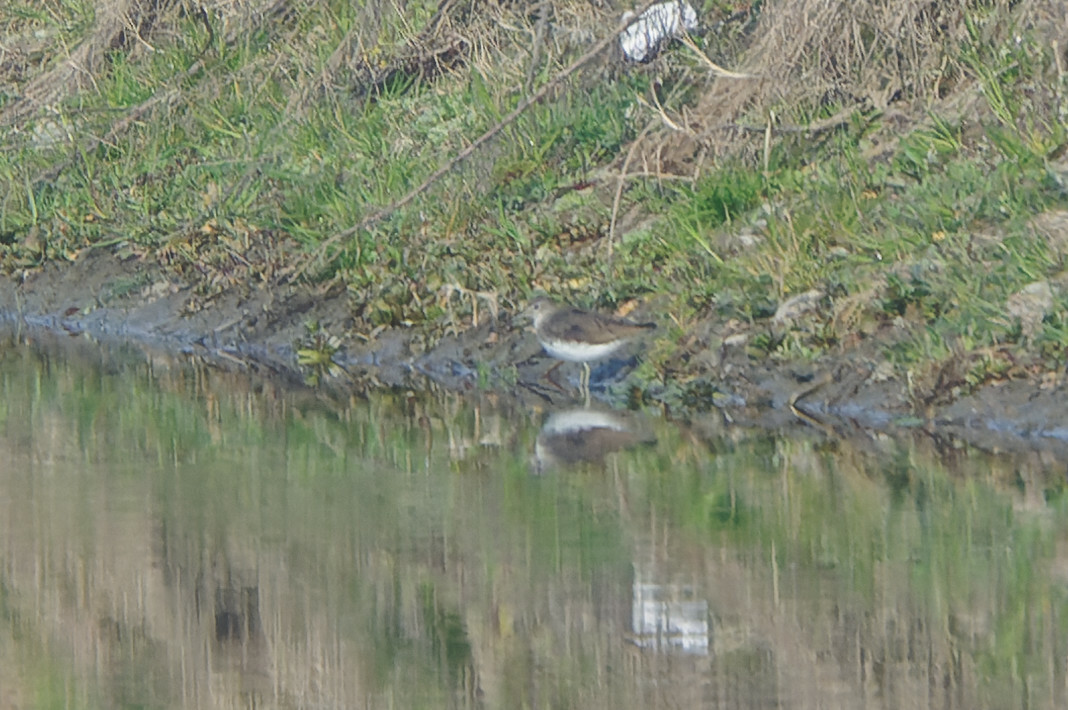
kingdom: Animalia
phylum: Chordata
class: Aves
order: Charadriiformes
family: Scolopacidae
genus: Tringa
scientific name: Tringa ochropus
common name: Green sandpiper
